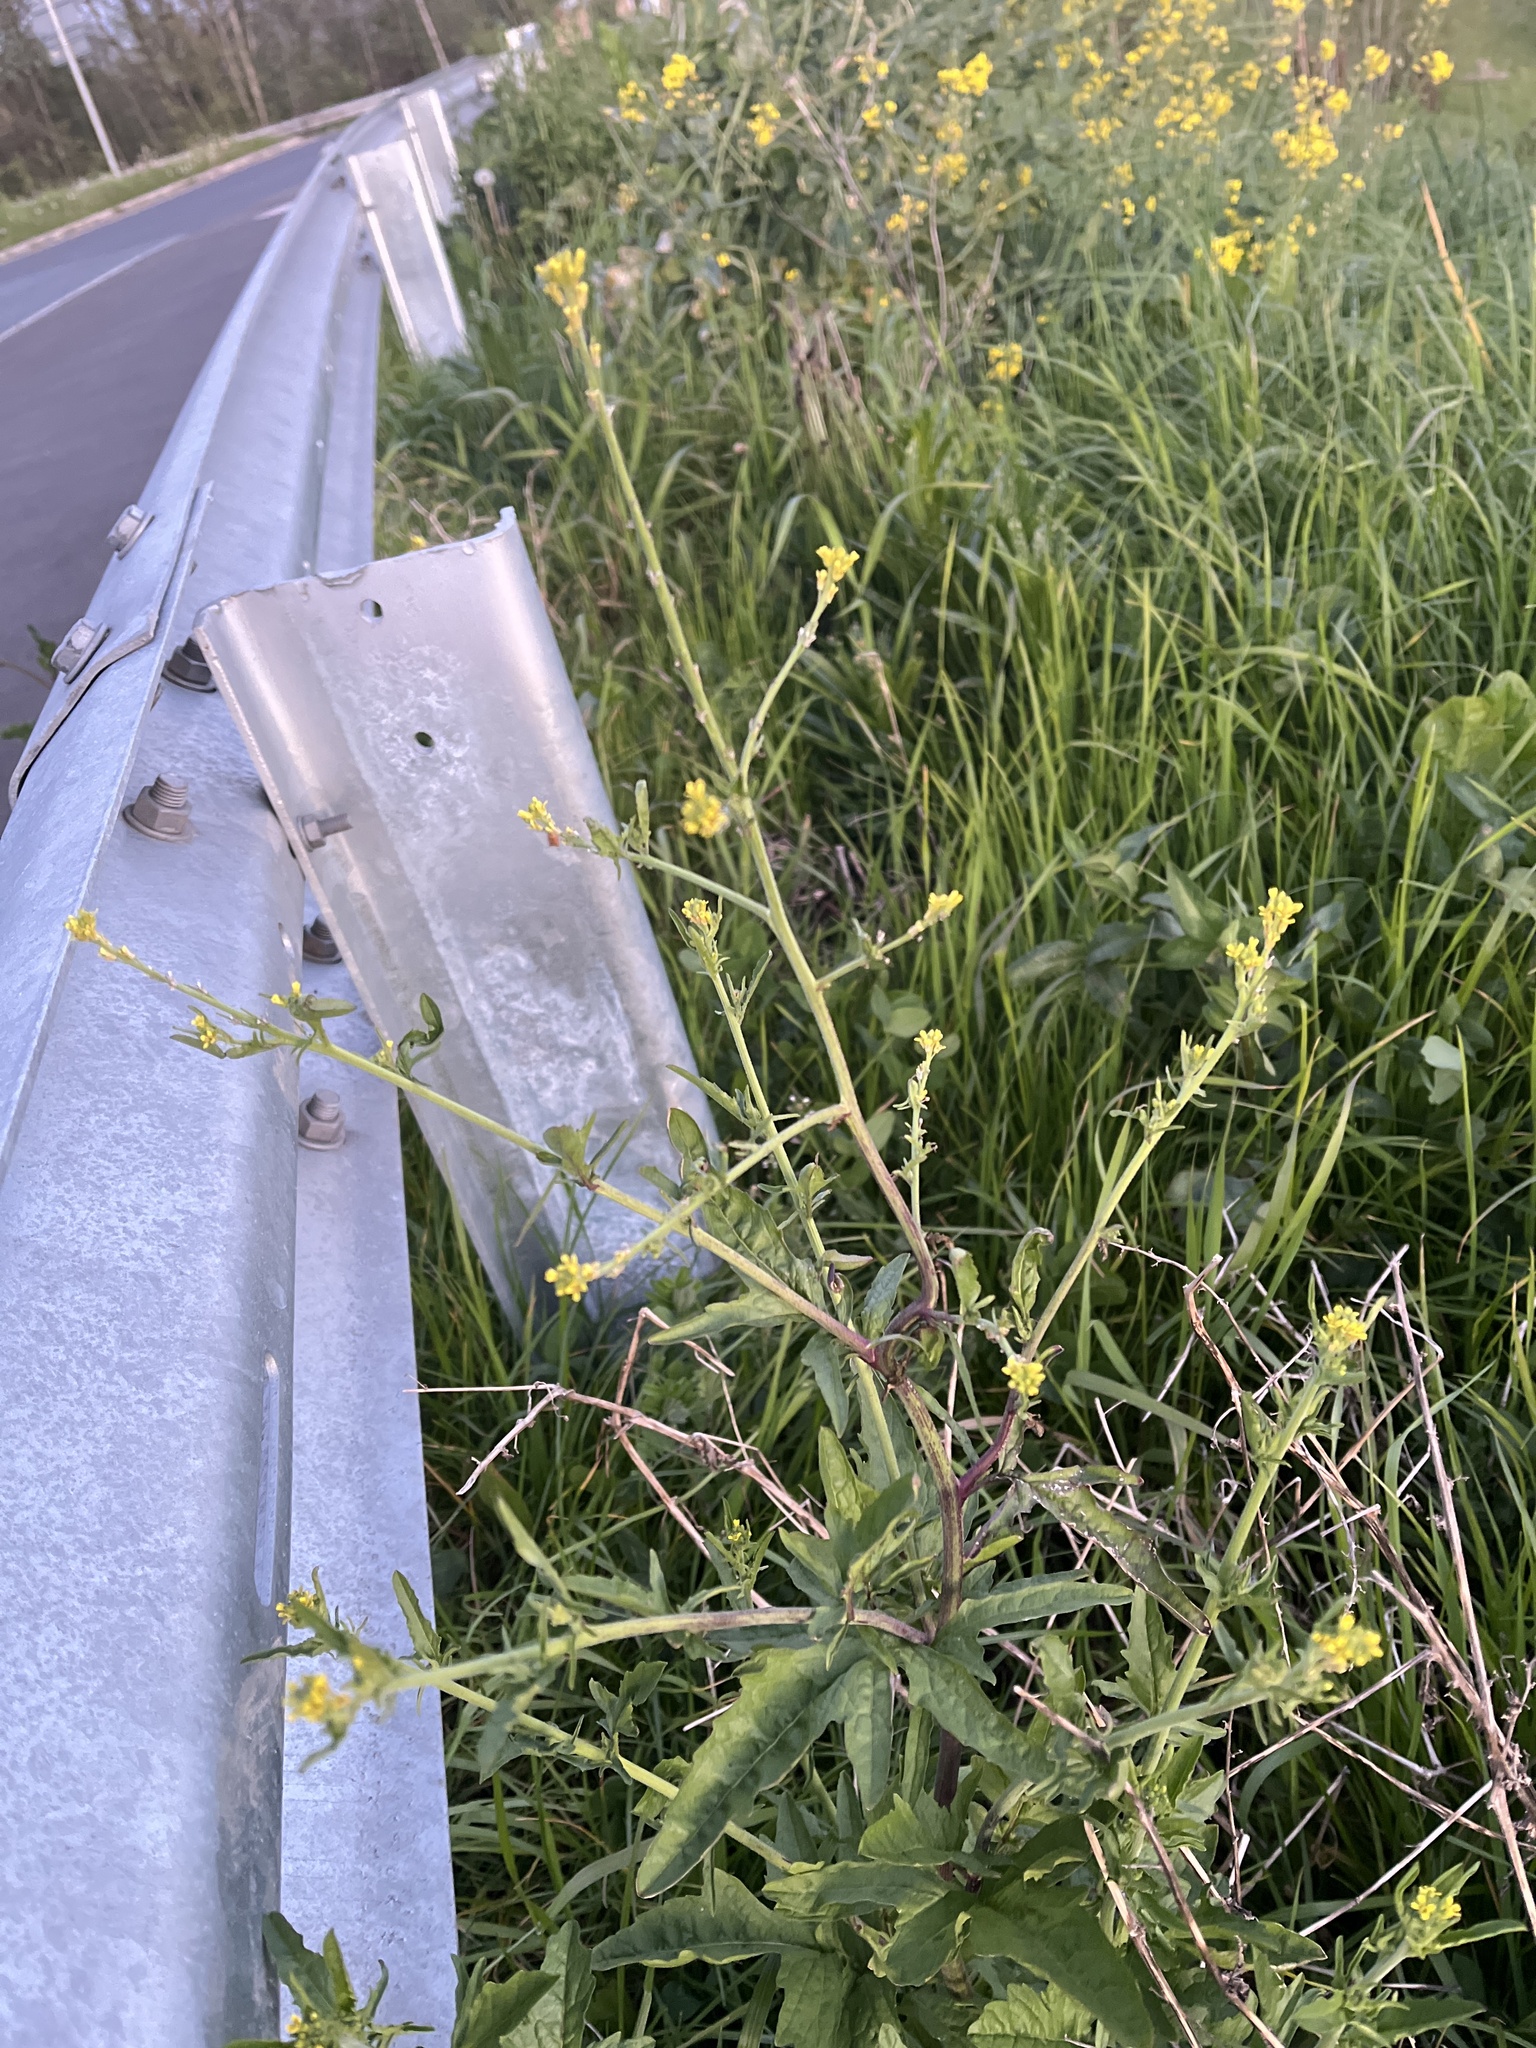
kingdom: Plantae
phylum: Tracheophyta
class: Magnoliopsida
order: Brassicales
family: Brassicaceae
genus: Sisymbrium
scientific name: Sisymbrium officinale
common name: Hedge mustard
